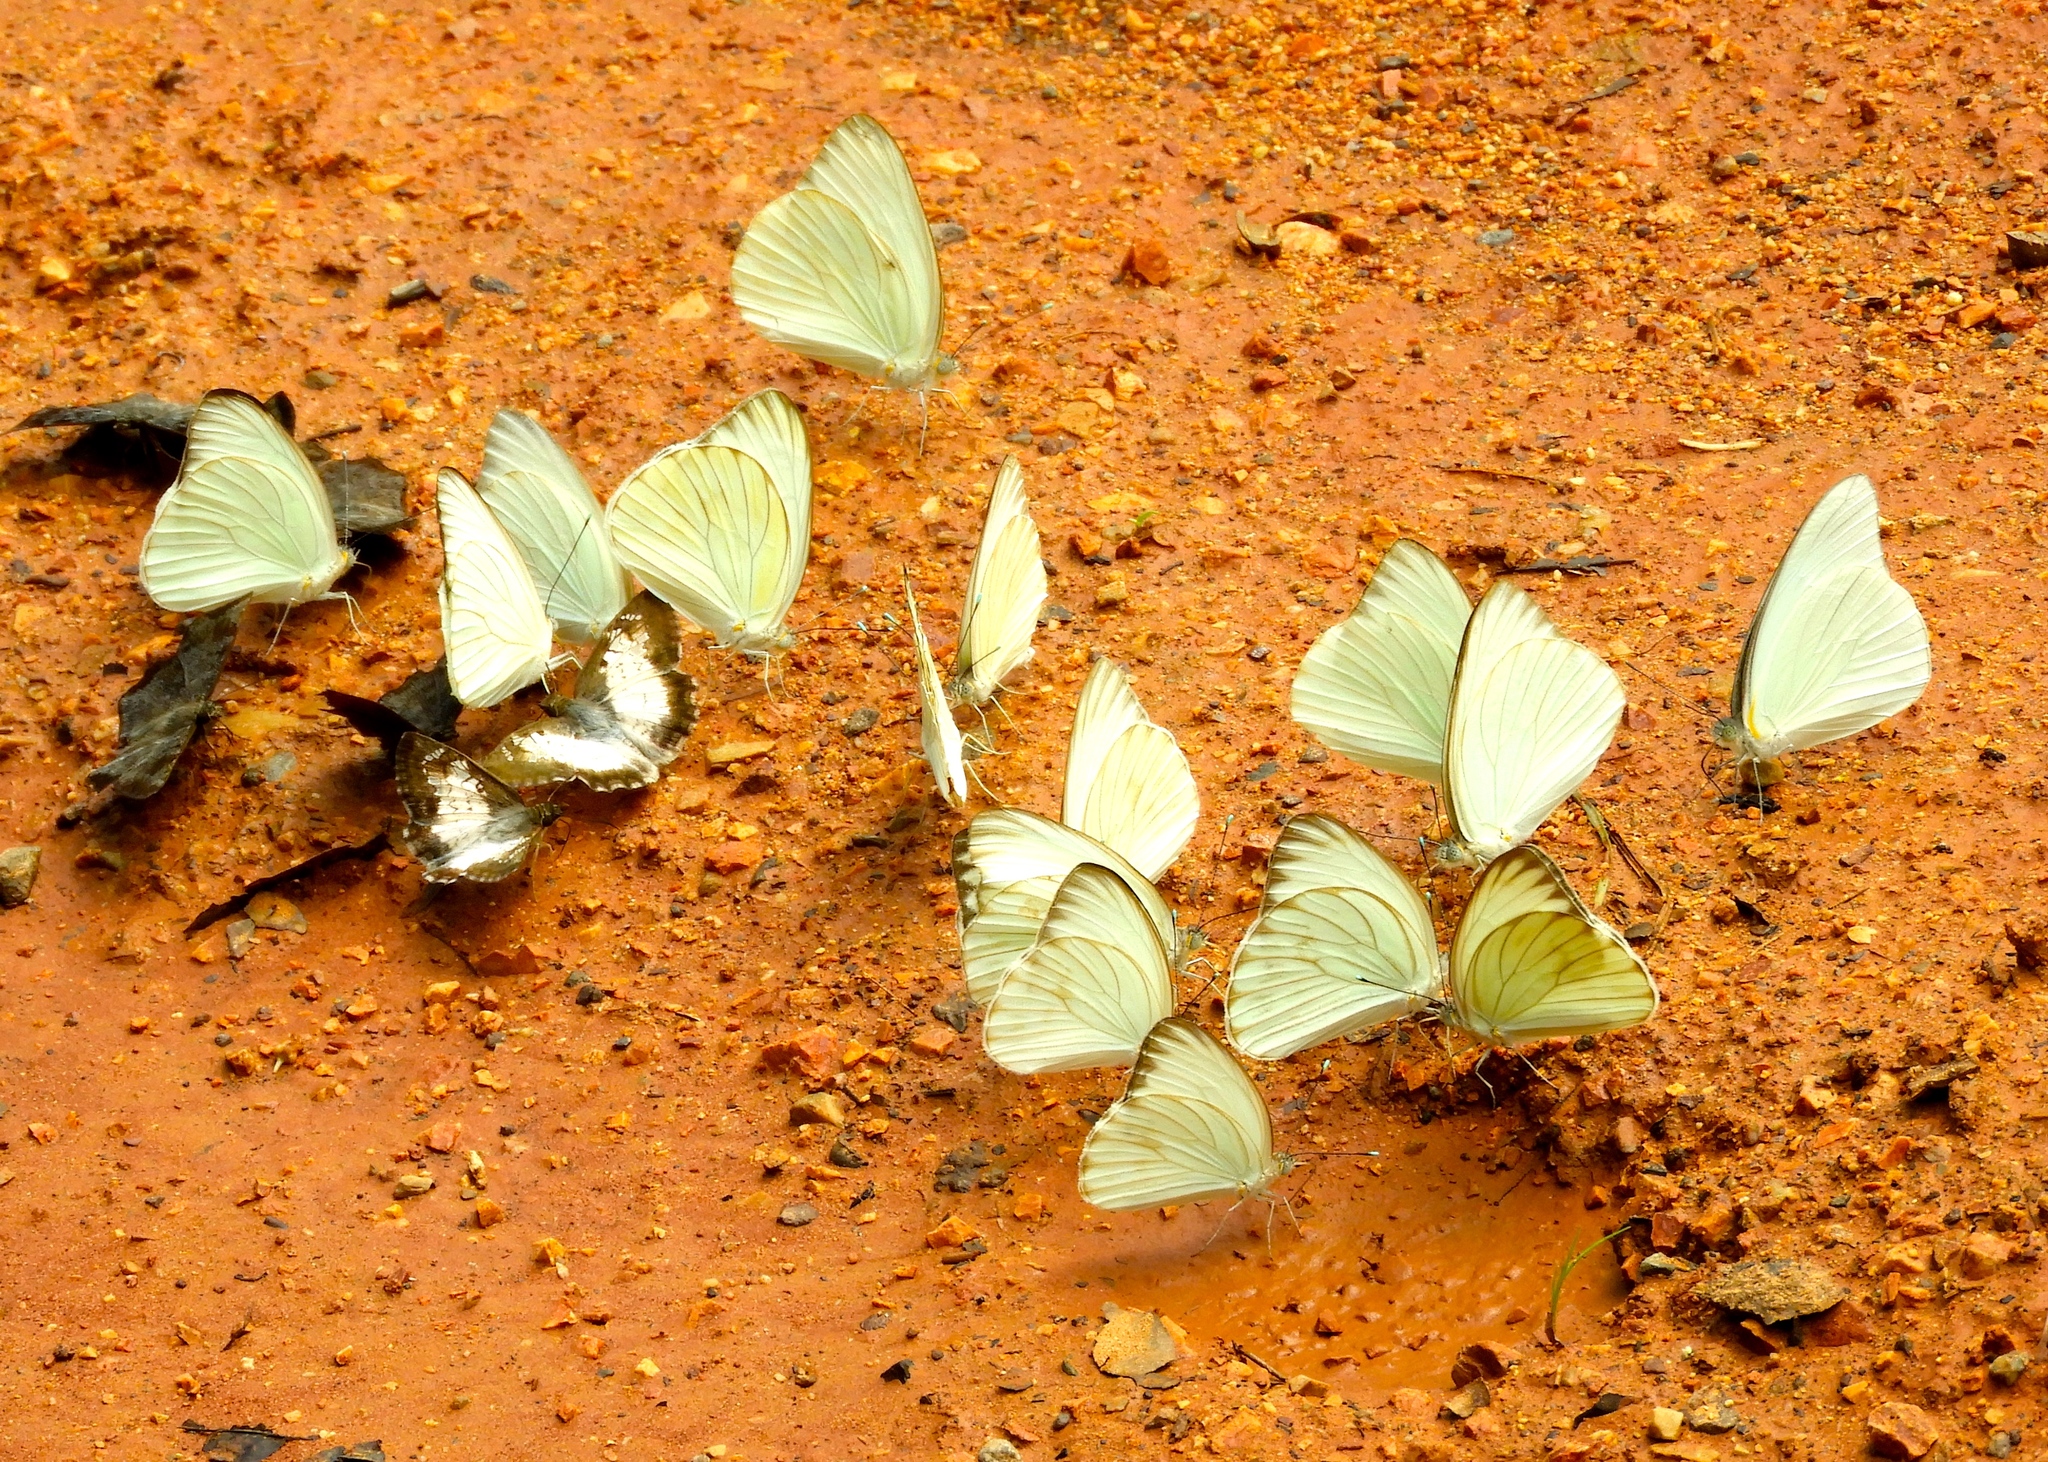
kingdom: Animalia
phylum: Arthropoda
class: Insecta
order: Lepidoptera
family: Pieridae
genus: Ascia
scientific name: Ascia monuste
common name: Great southern white
